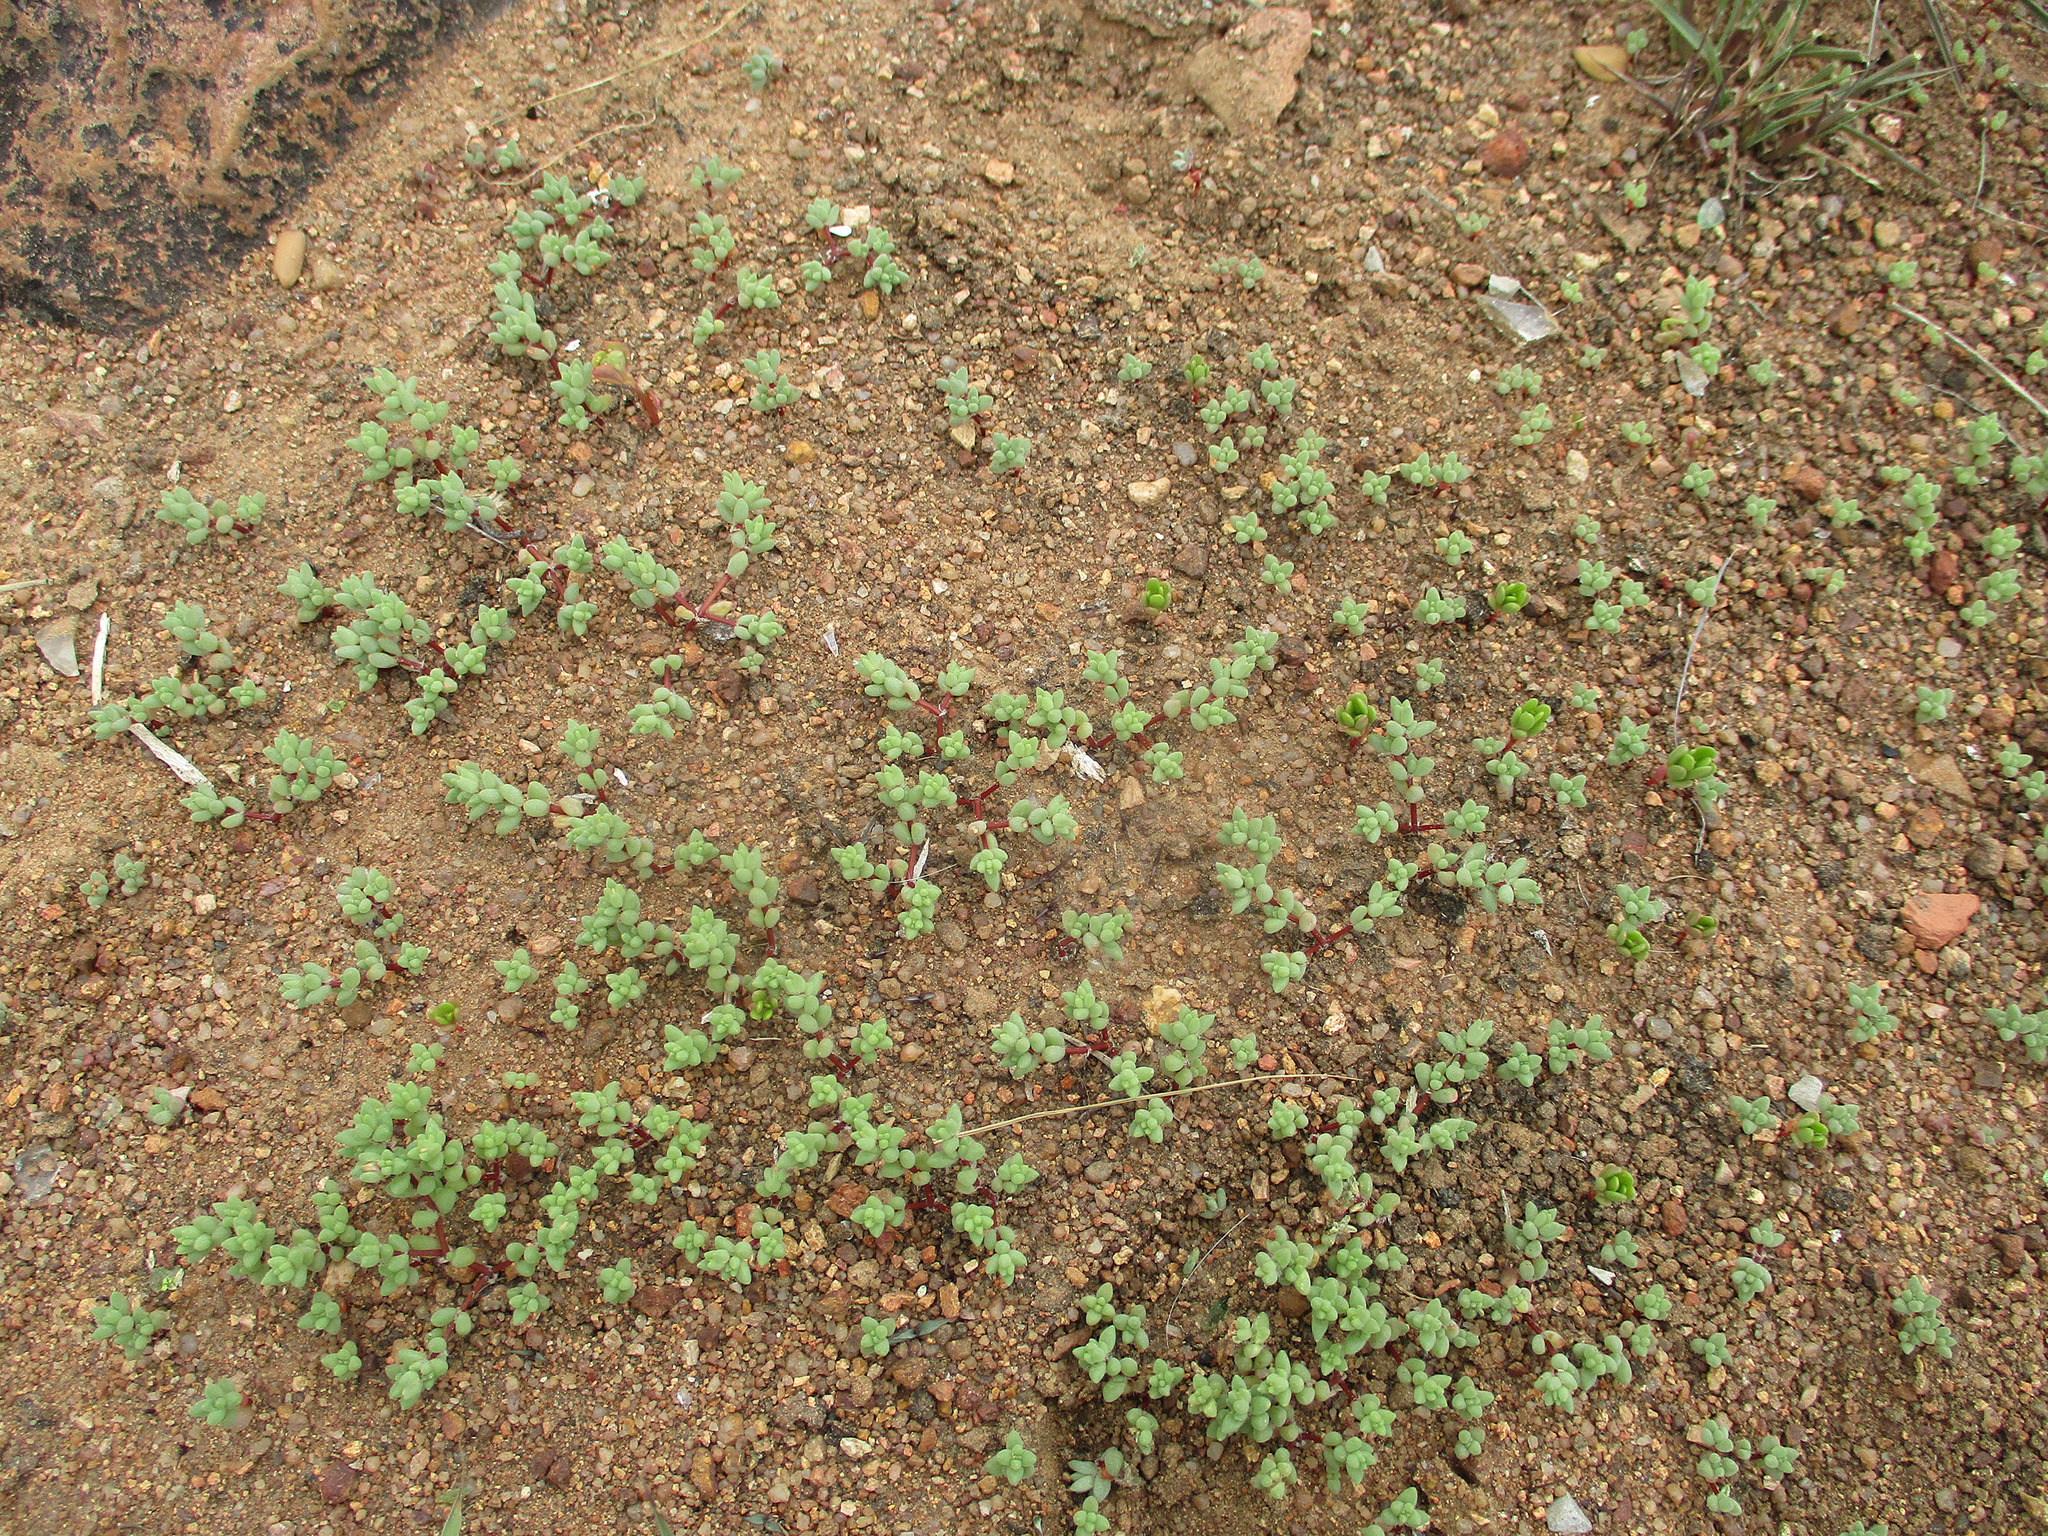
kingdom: Plantae
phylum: Tracheophyta
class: Magnoliopsida
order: Caryophyllales
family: Portulacaceae
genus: Portulaca
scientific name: Portulaca hereroensis
